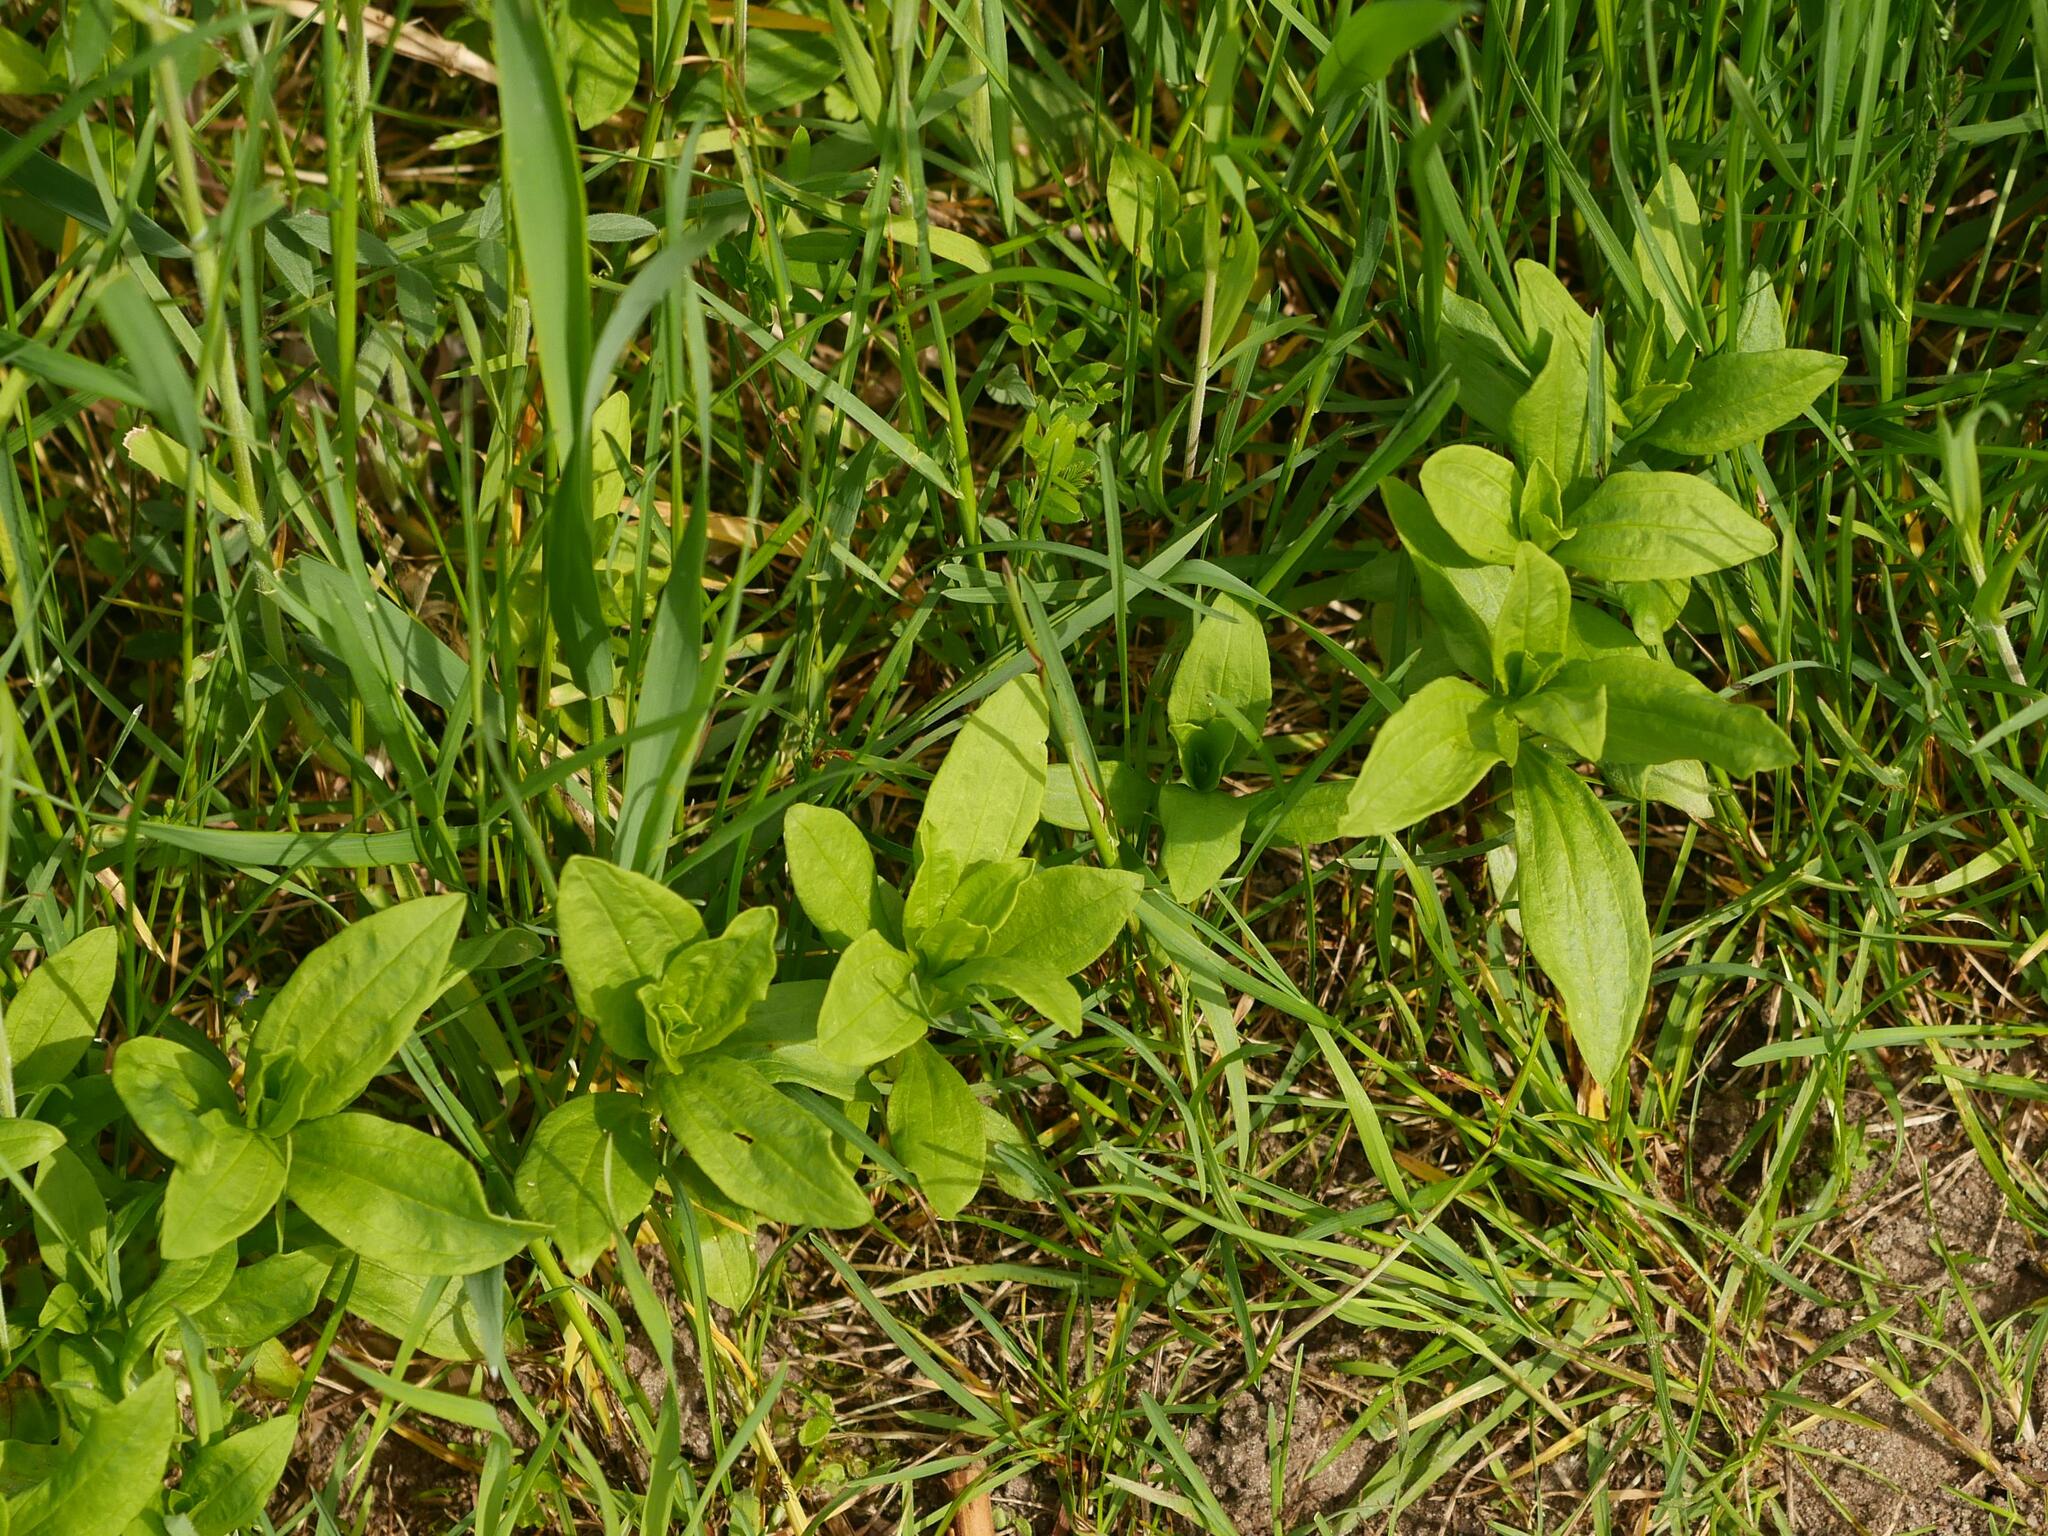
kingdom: Plantae
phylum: Tracheophyta
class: Magnoliopsida
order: Caryophyllales
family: Caryophyllaceae
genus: Saponaria
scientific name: Saponaria officinalis
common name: Soapwort
